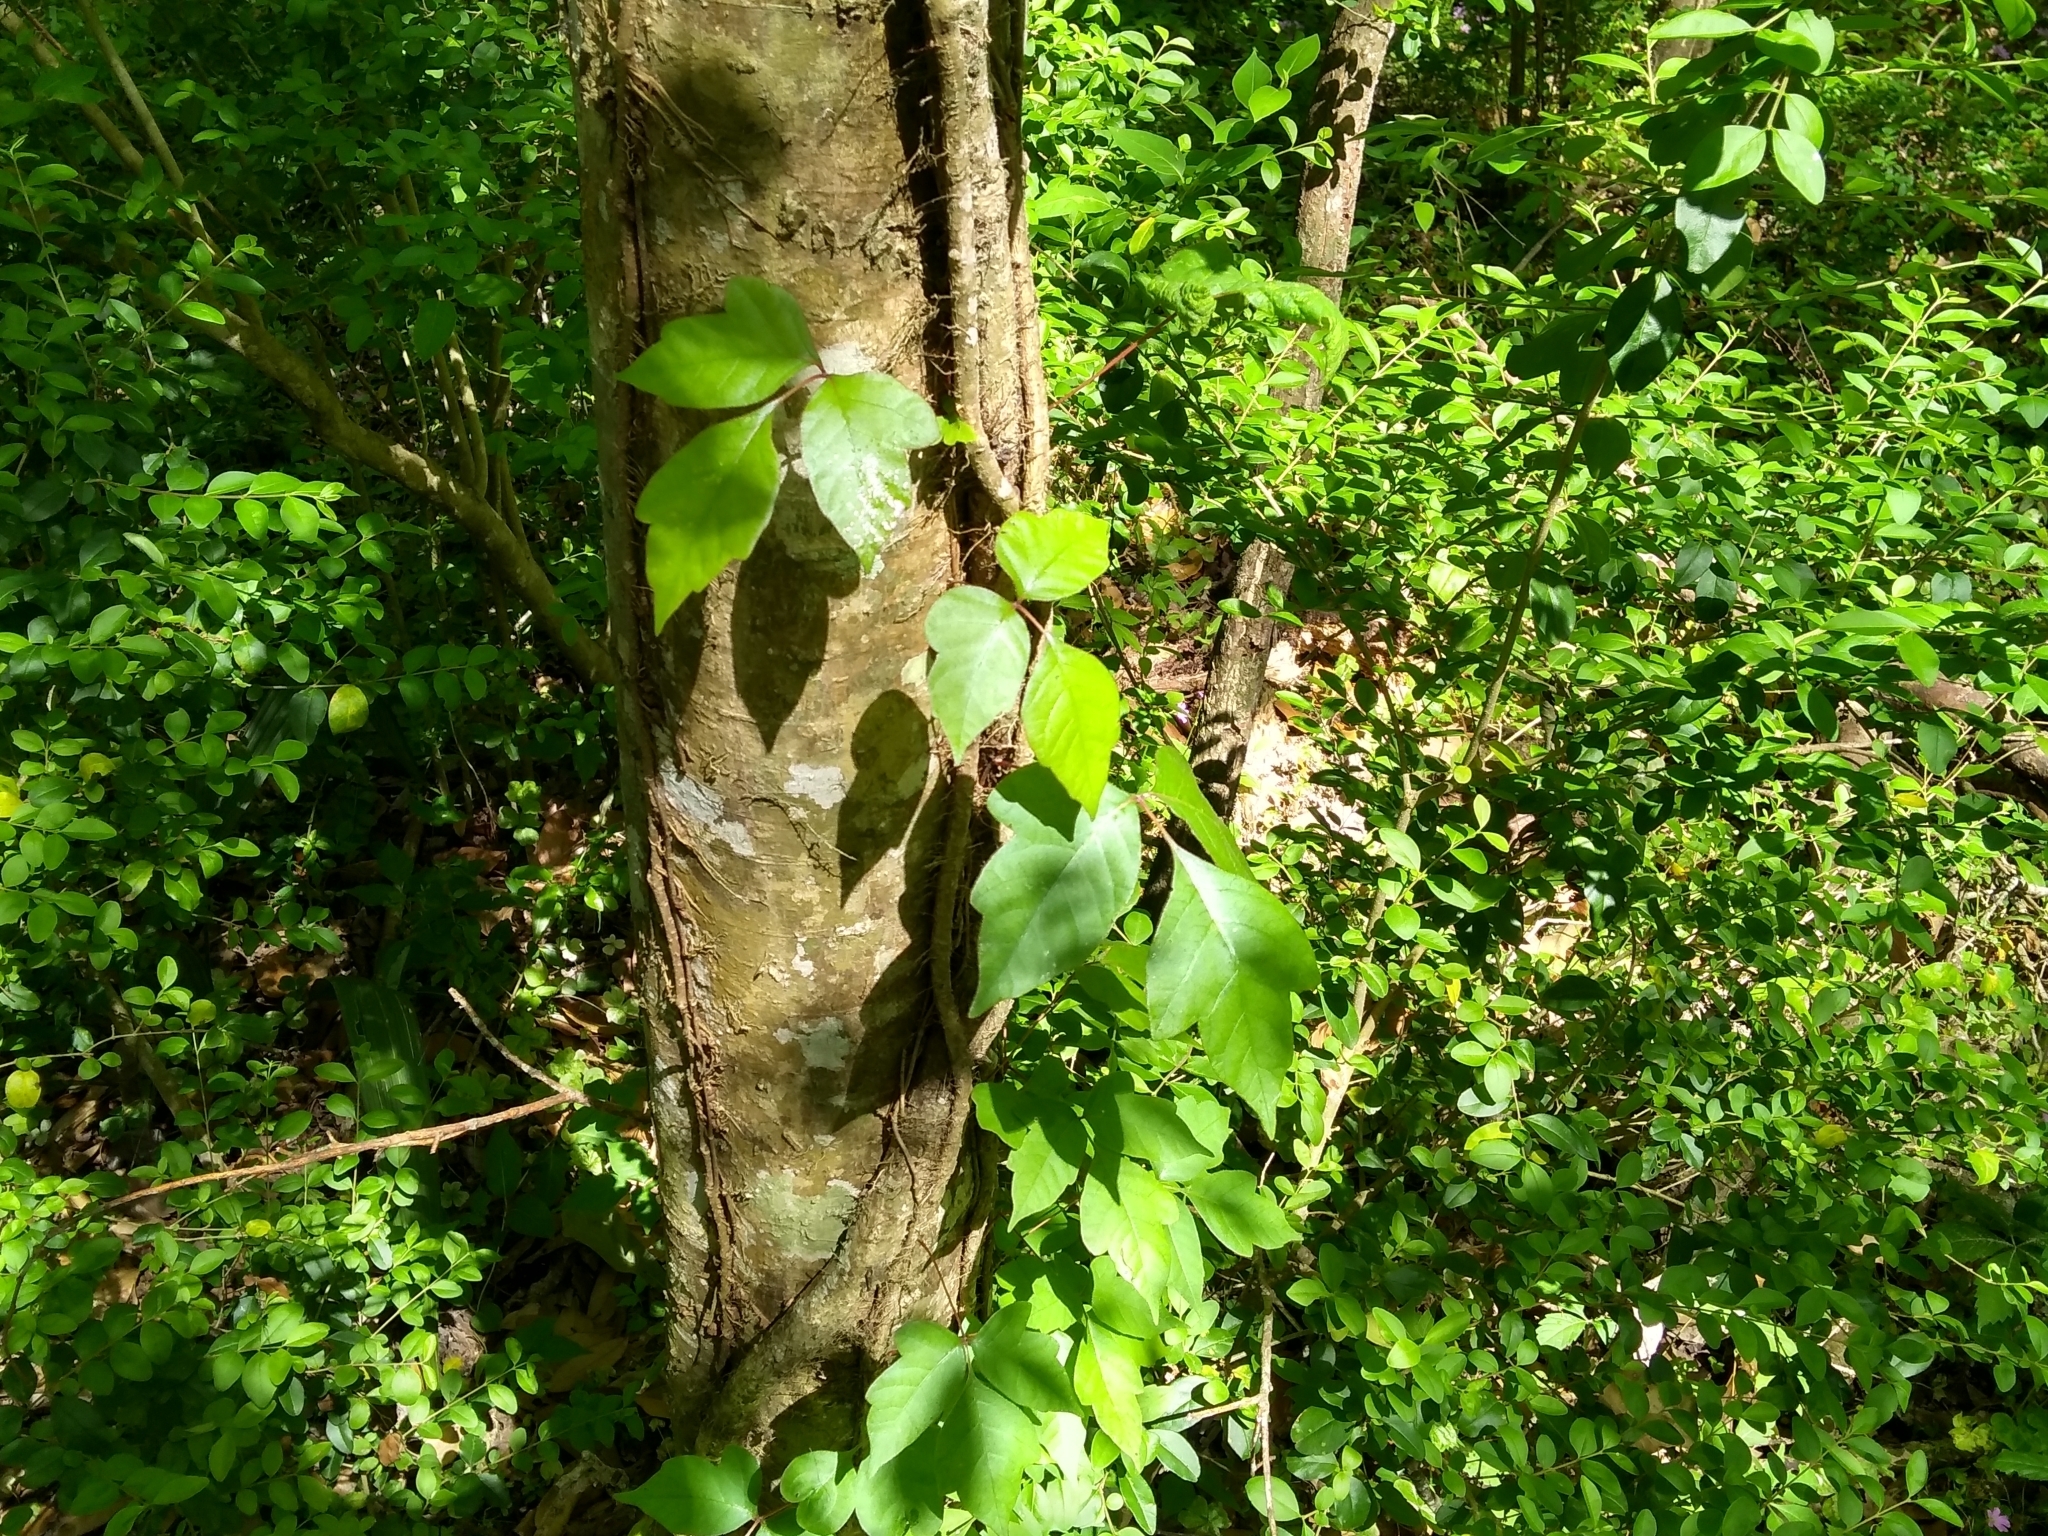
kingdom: Plantae
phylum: Tracheophyta
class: Magnoliopsida
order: Sapindales
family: Anacardiaceae
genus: Toxicodendron
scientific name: Toxicodendron radicans
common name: Poison ivy
